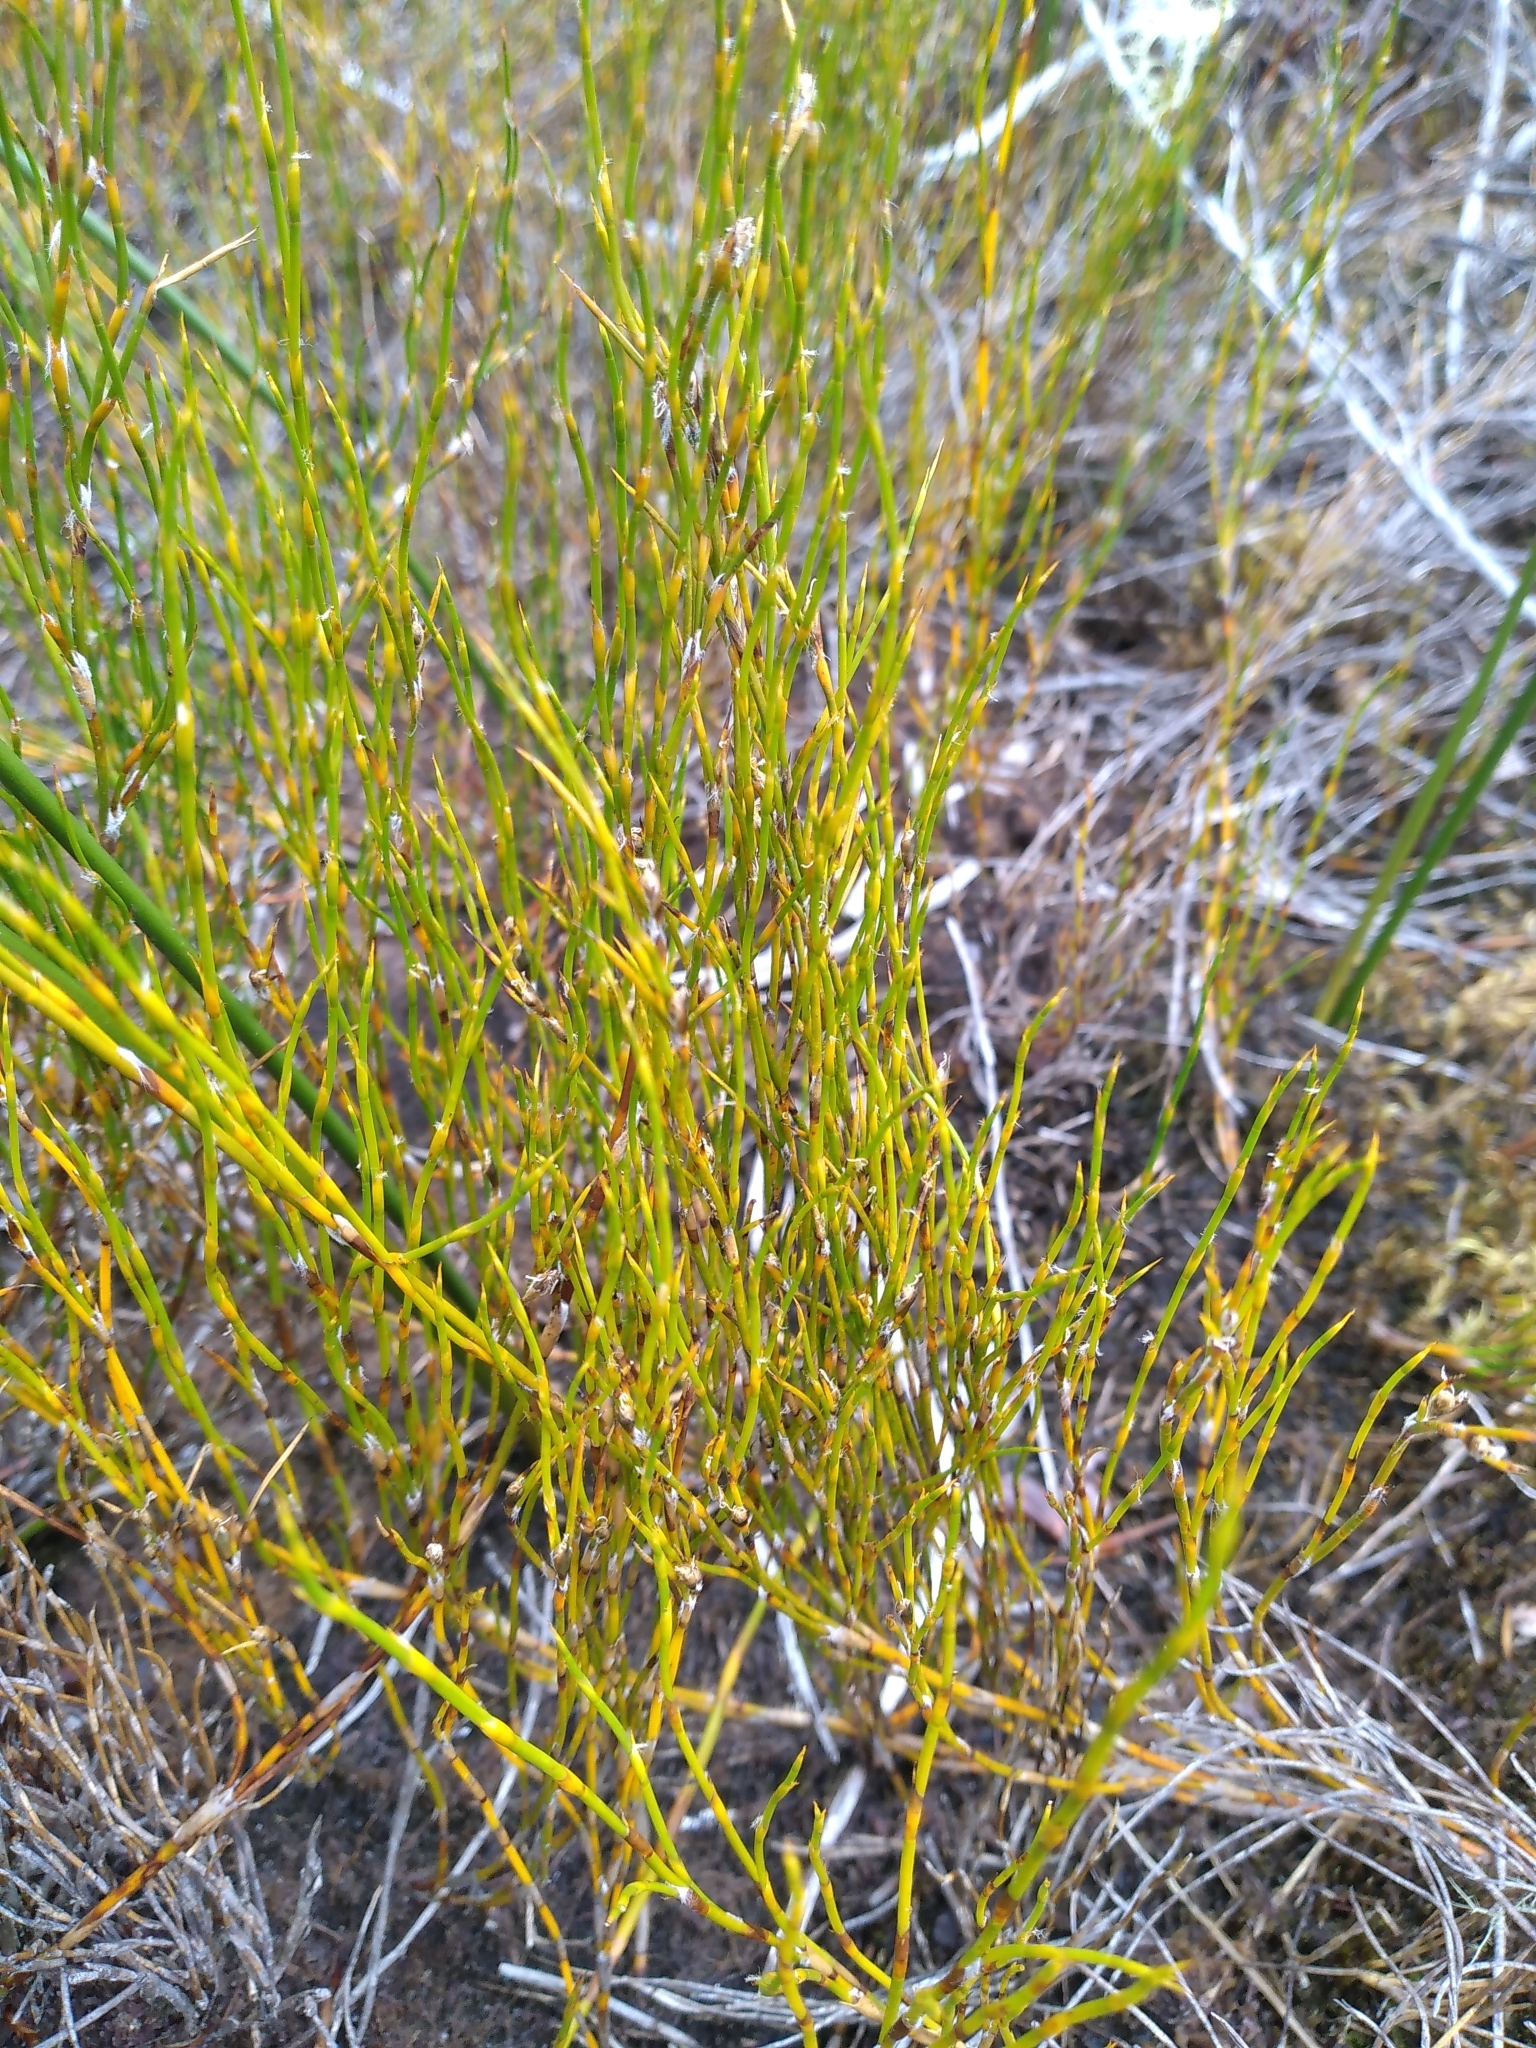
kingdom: Plantae
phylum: Tracheophyta
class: Liliopsida
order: Poales
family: Restionaceae
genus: Empodisma
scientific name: Empodisma minus
